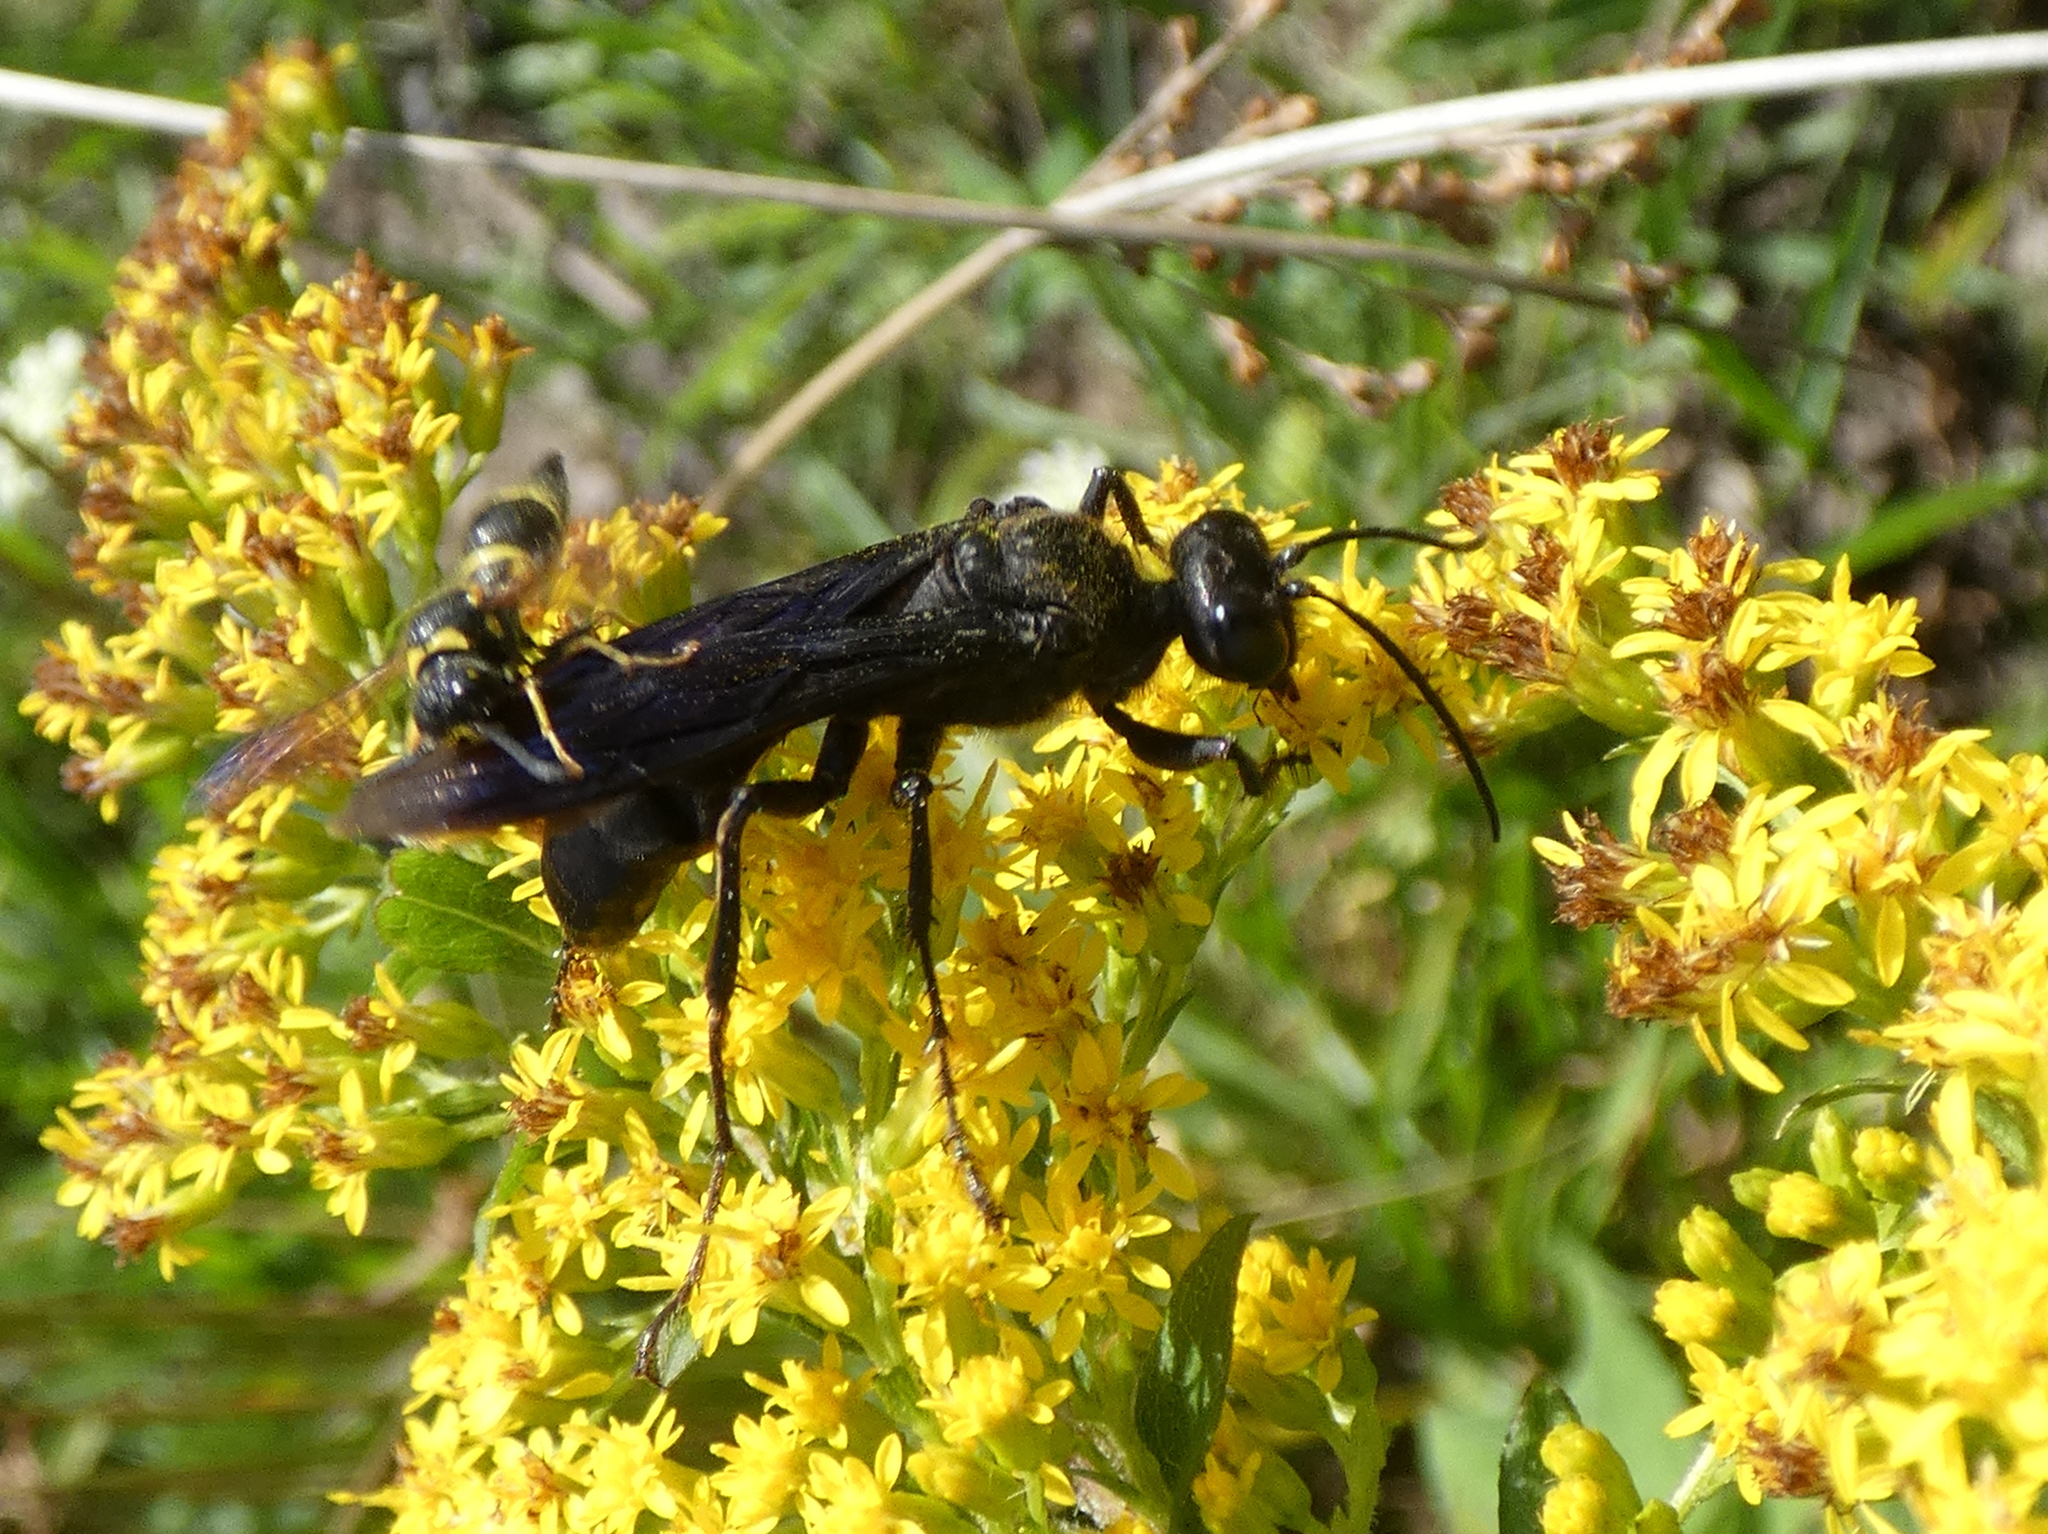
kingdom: Animalia
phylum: Arthropoda
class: Insecta
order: Hymenoptera
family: Sphecidae
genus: Sphex
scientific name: Sphex pensylvanicus
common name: Great black digger wasp
